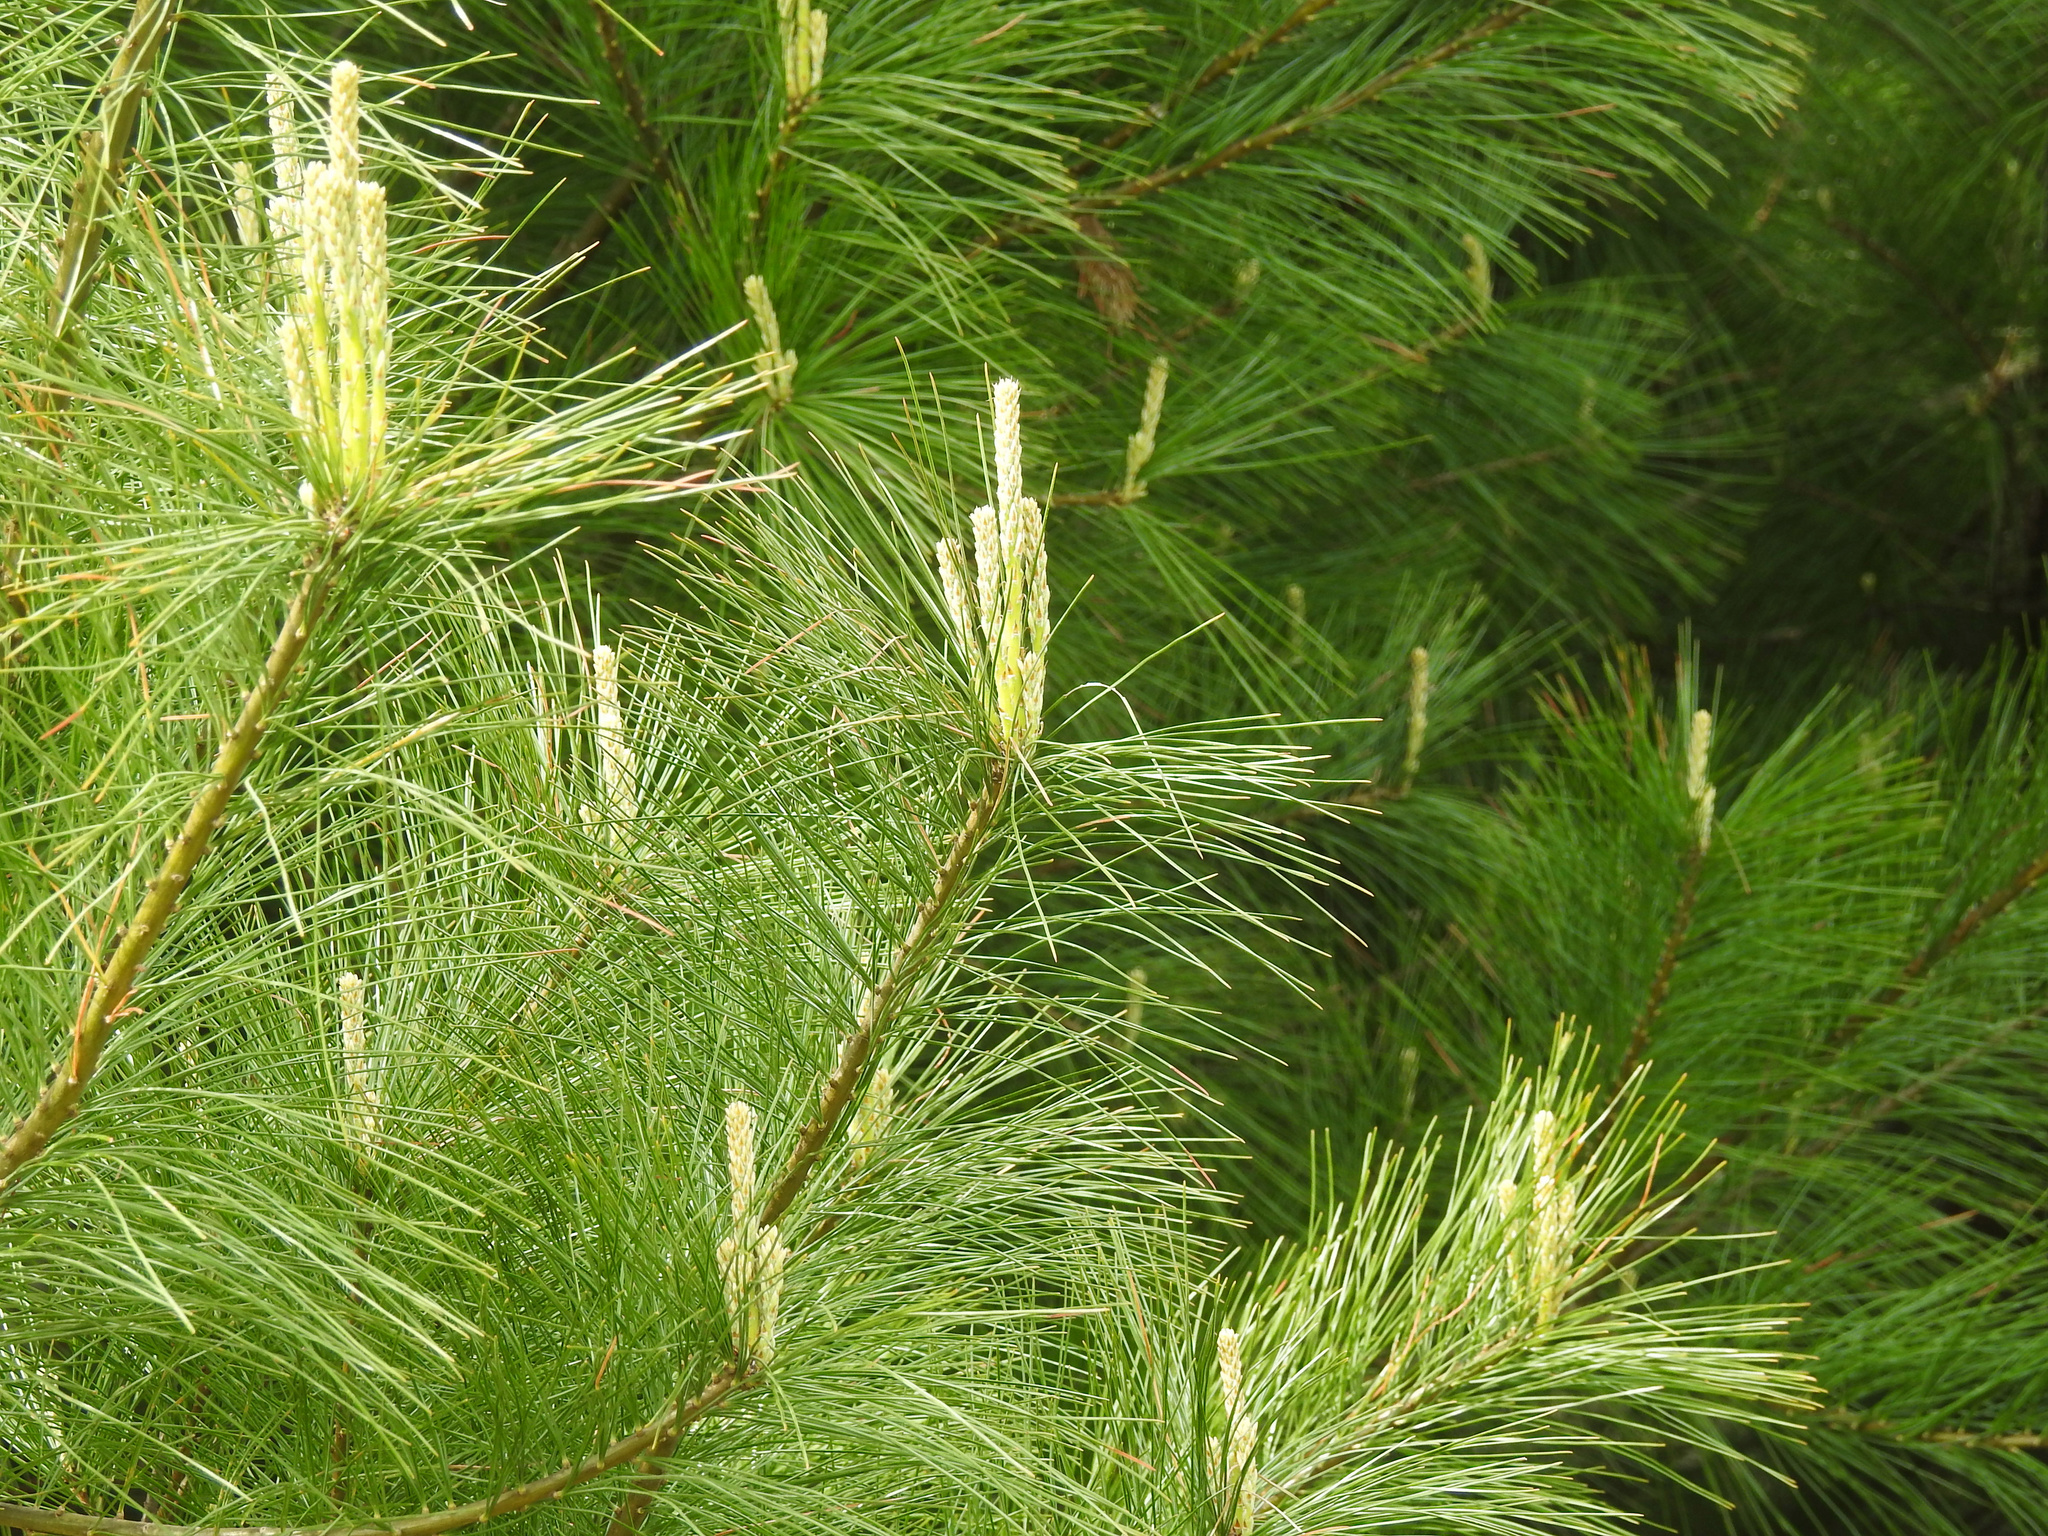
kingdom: Plantae
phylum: Tracheophyta
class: Pinopsida
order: Pinales
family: Pinaceae
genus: Pinus
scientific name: Pinus strobus
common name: Weymouth pine
